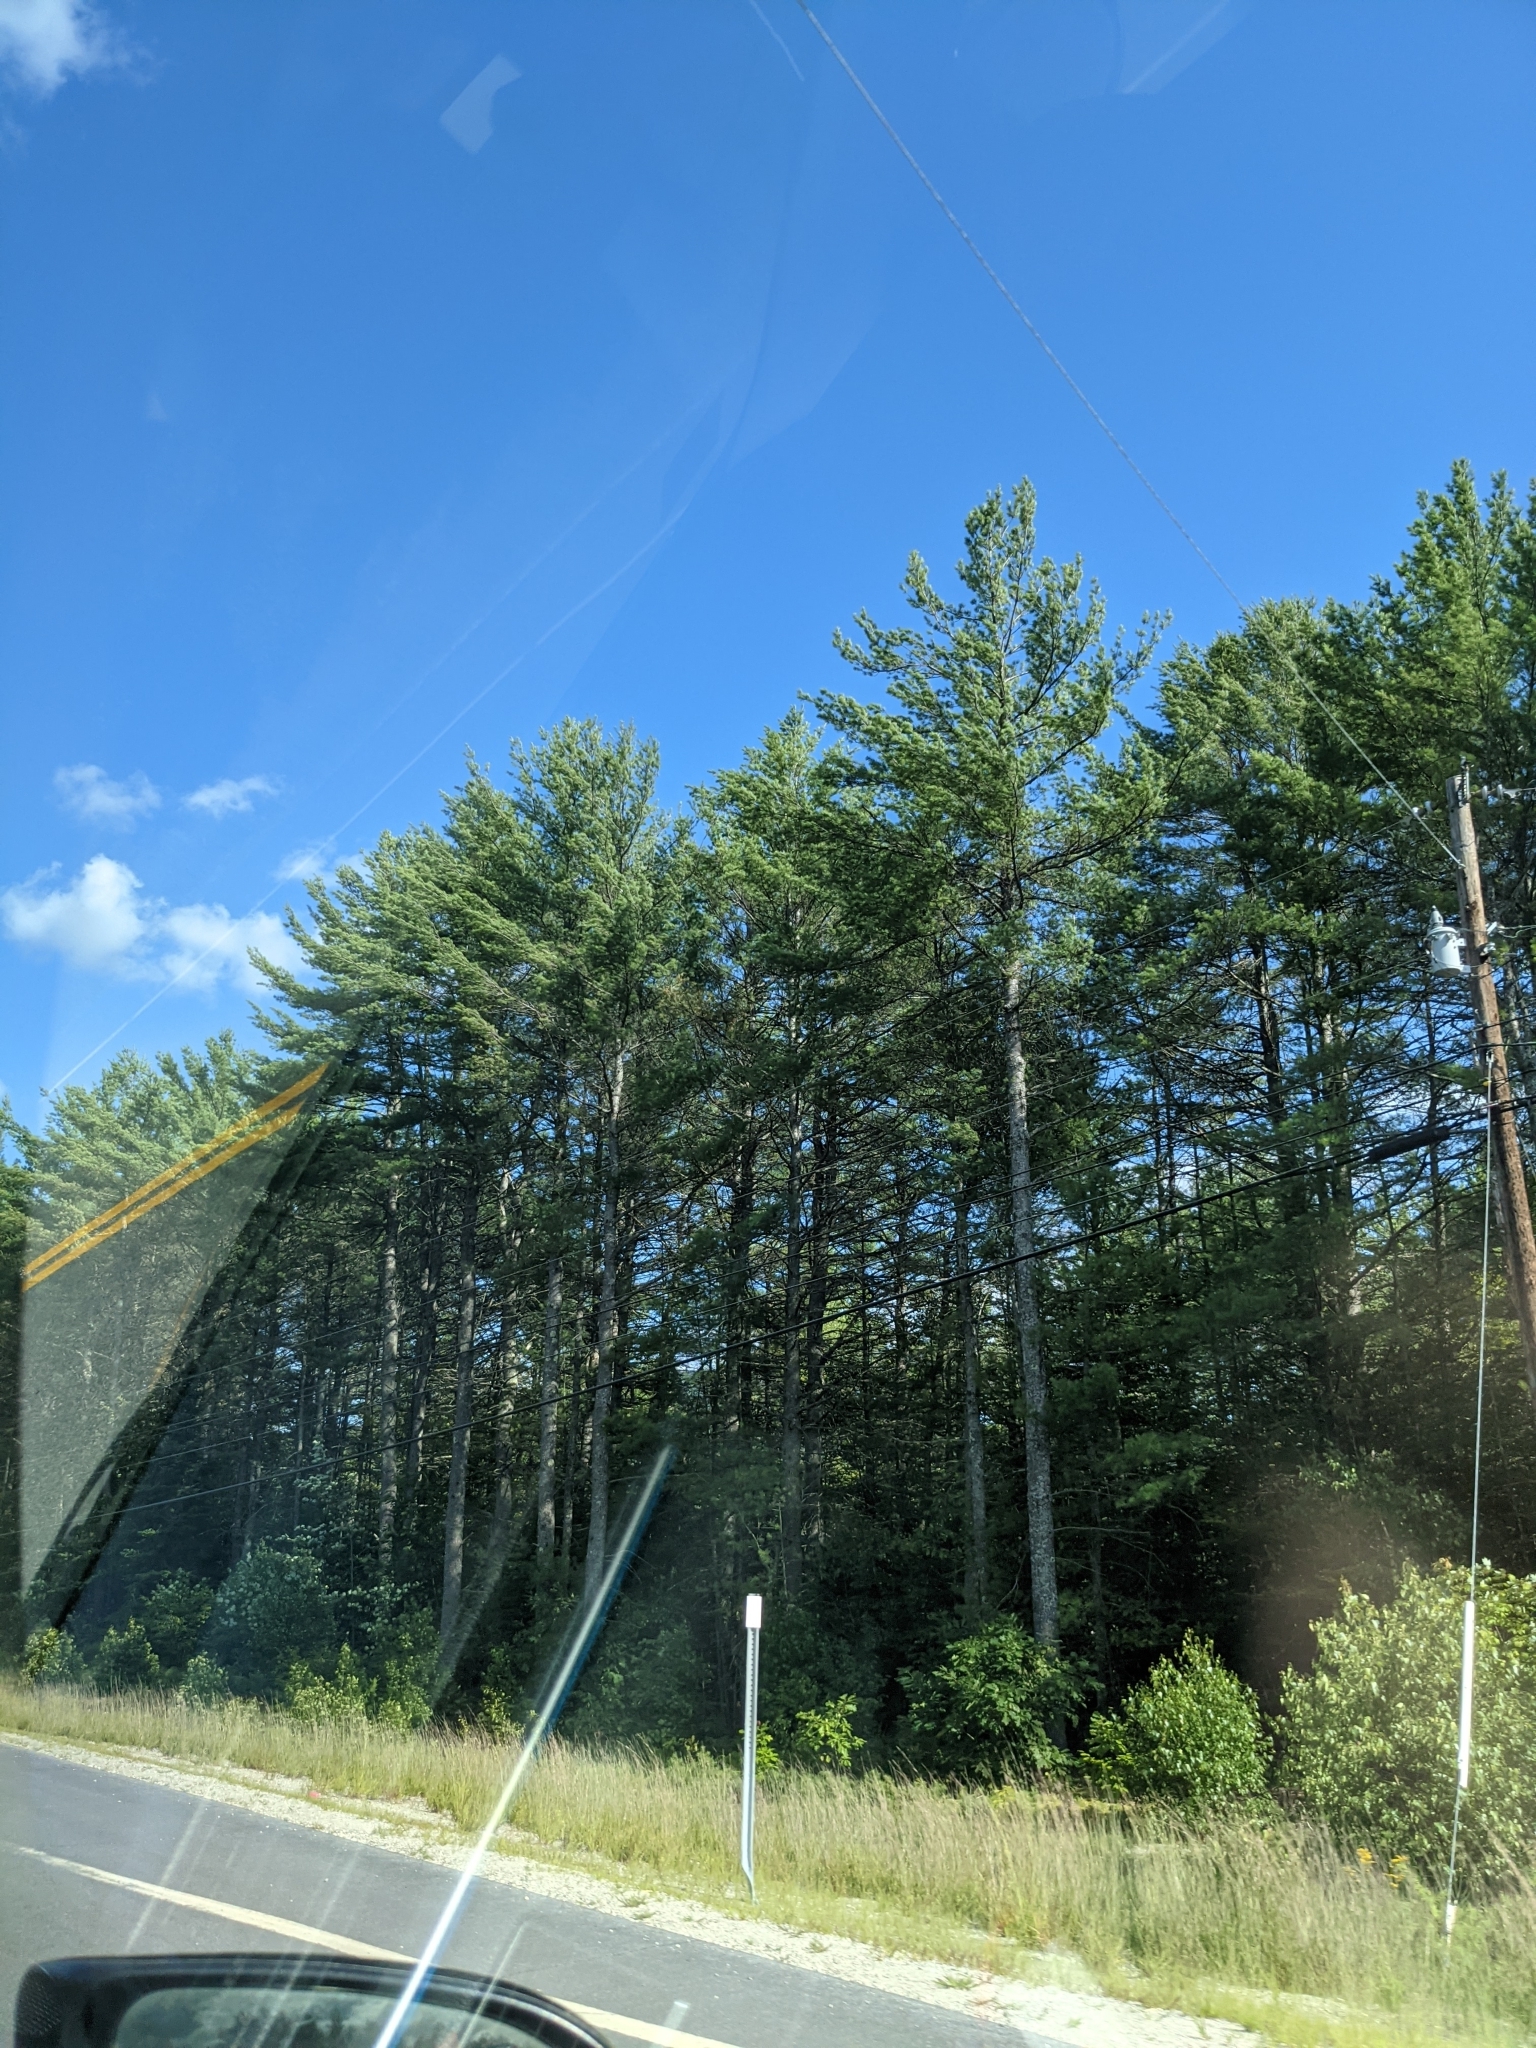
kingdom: Plantae
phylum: Tracheophyta
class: Pinopsida
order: Pinales
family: Pinaceae
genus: Pinus
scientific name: Pinus strobus
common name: Weymouth pine
